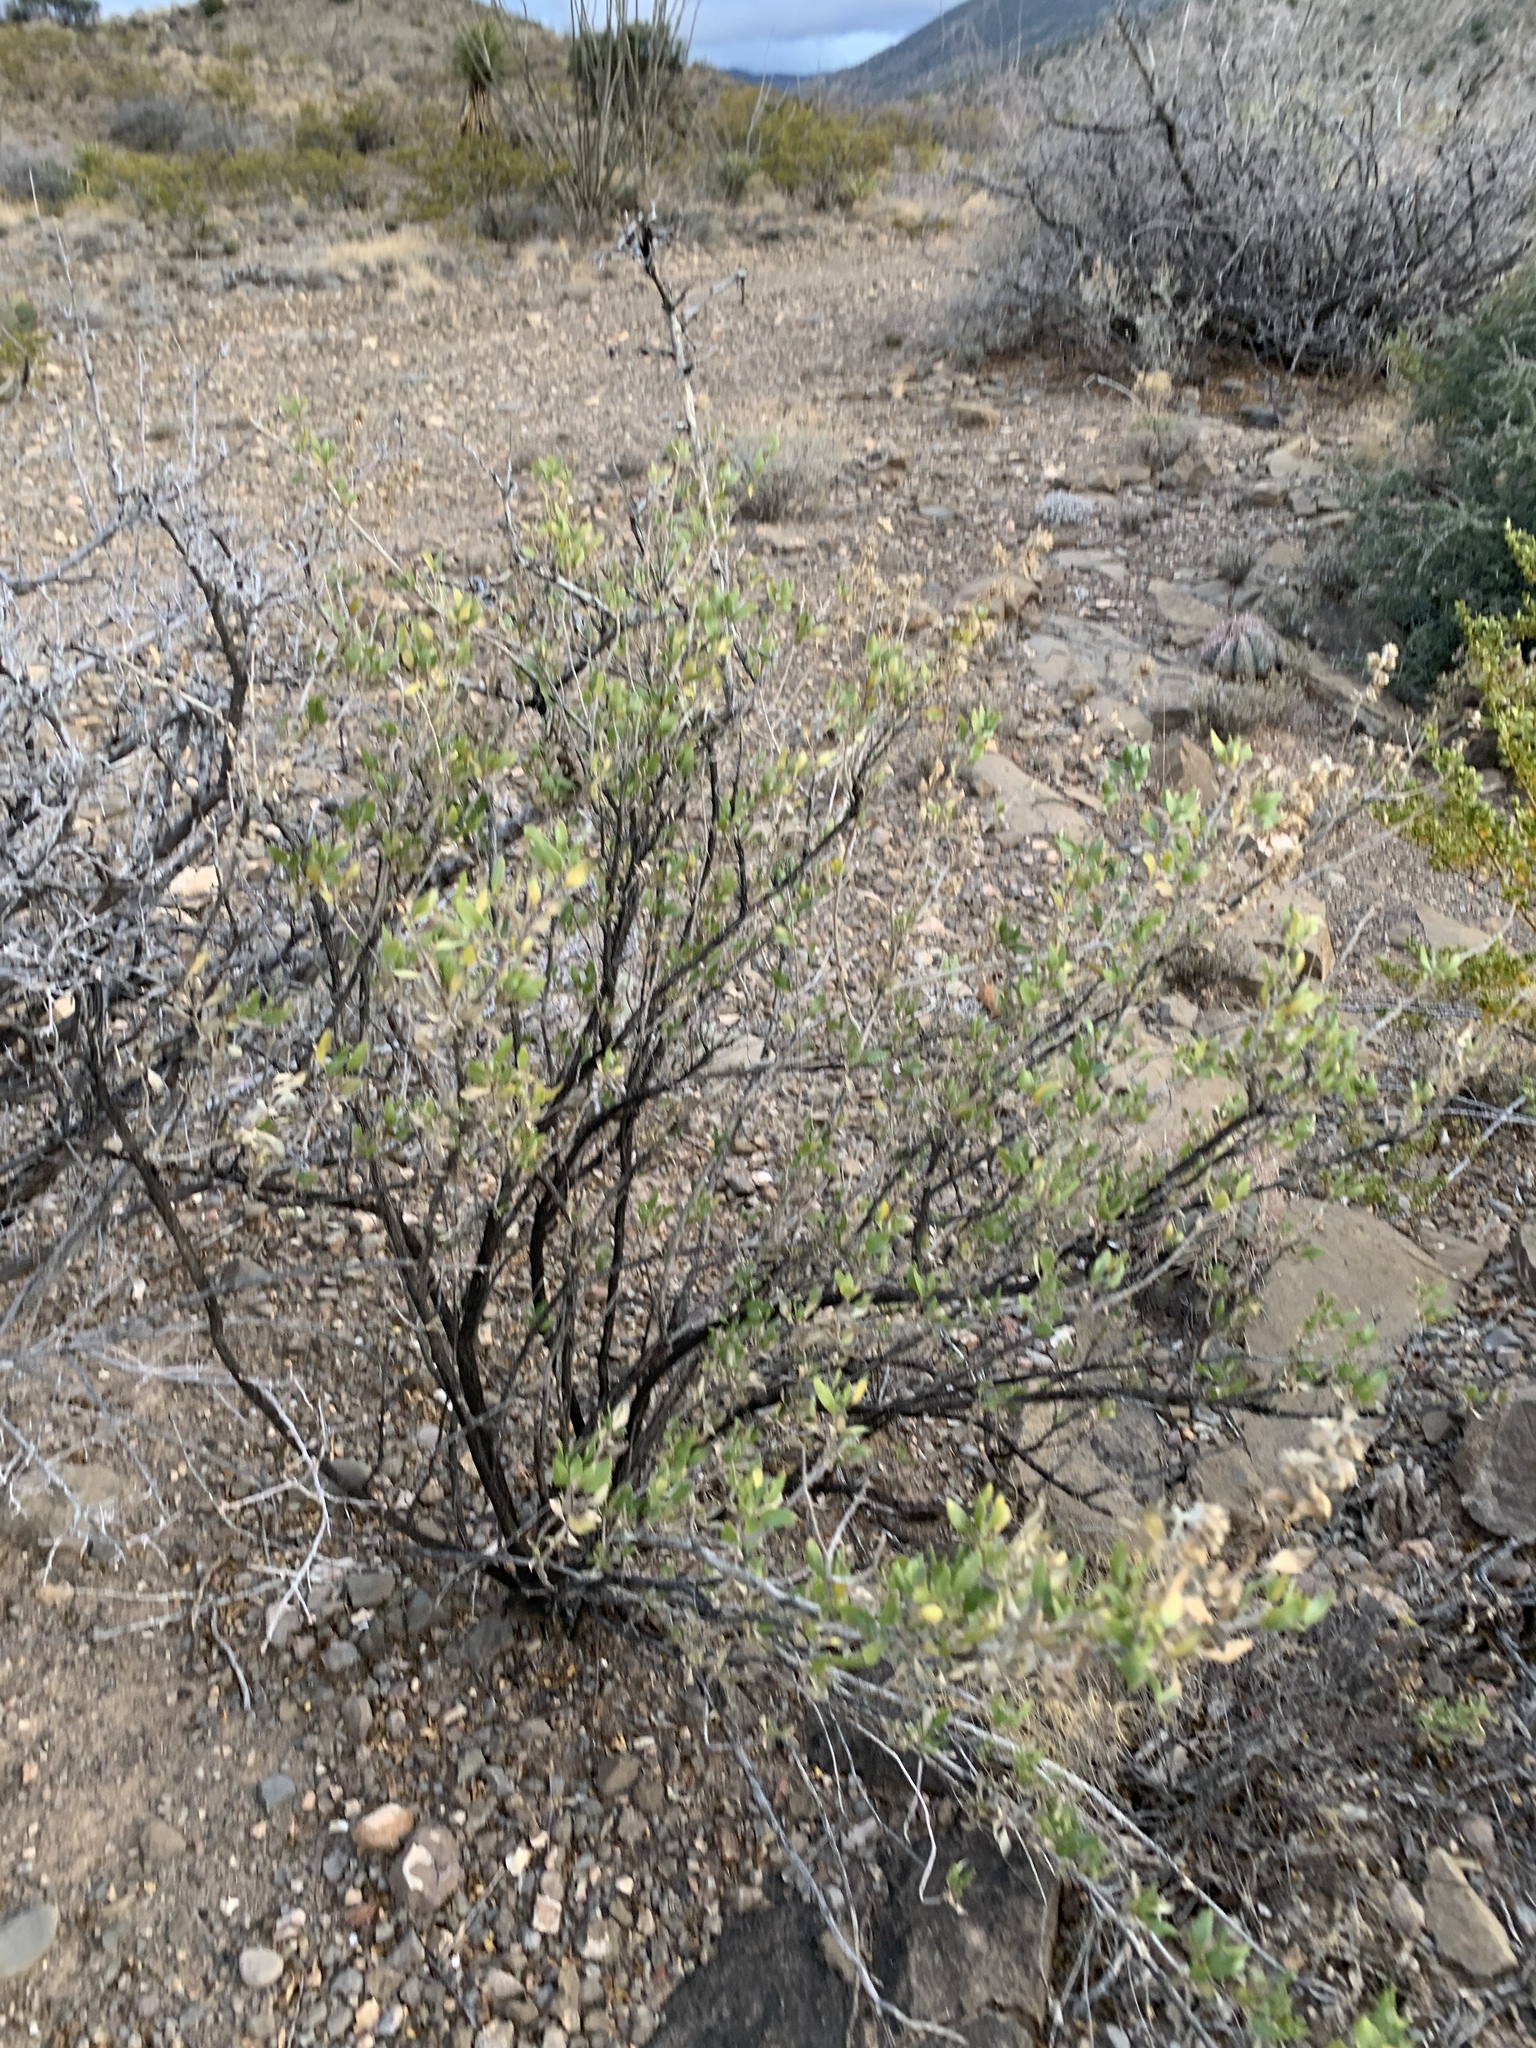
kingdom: Plantae
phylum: Tracheophyta
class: Magnoliopsida
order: Asterales
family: Asteraceae
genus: Flourensia
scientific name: Flourensia cernua
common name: Varnishbush
